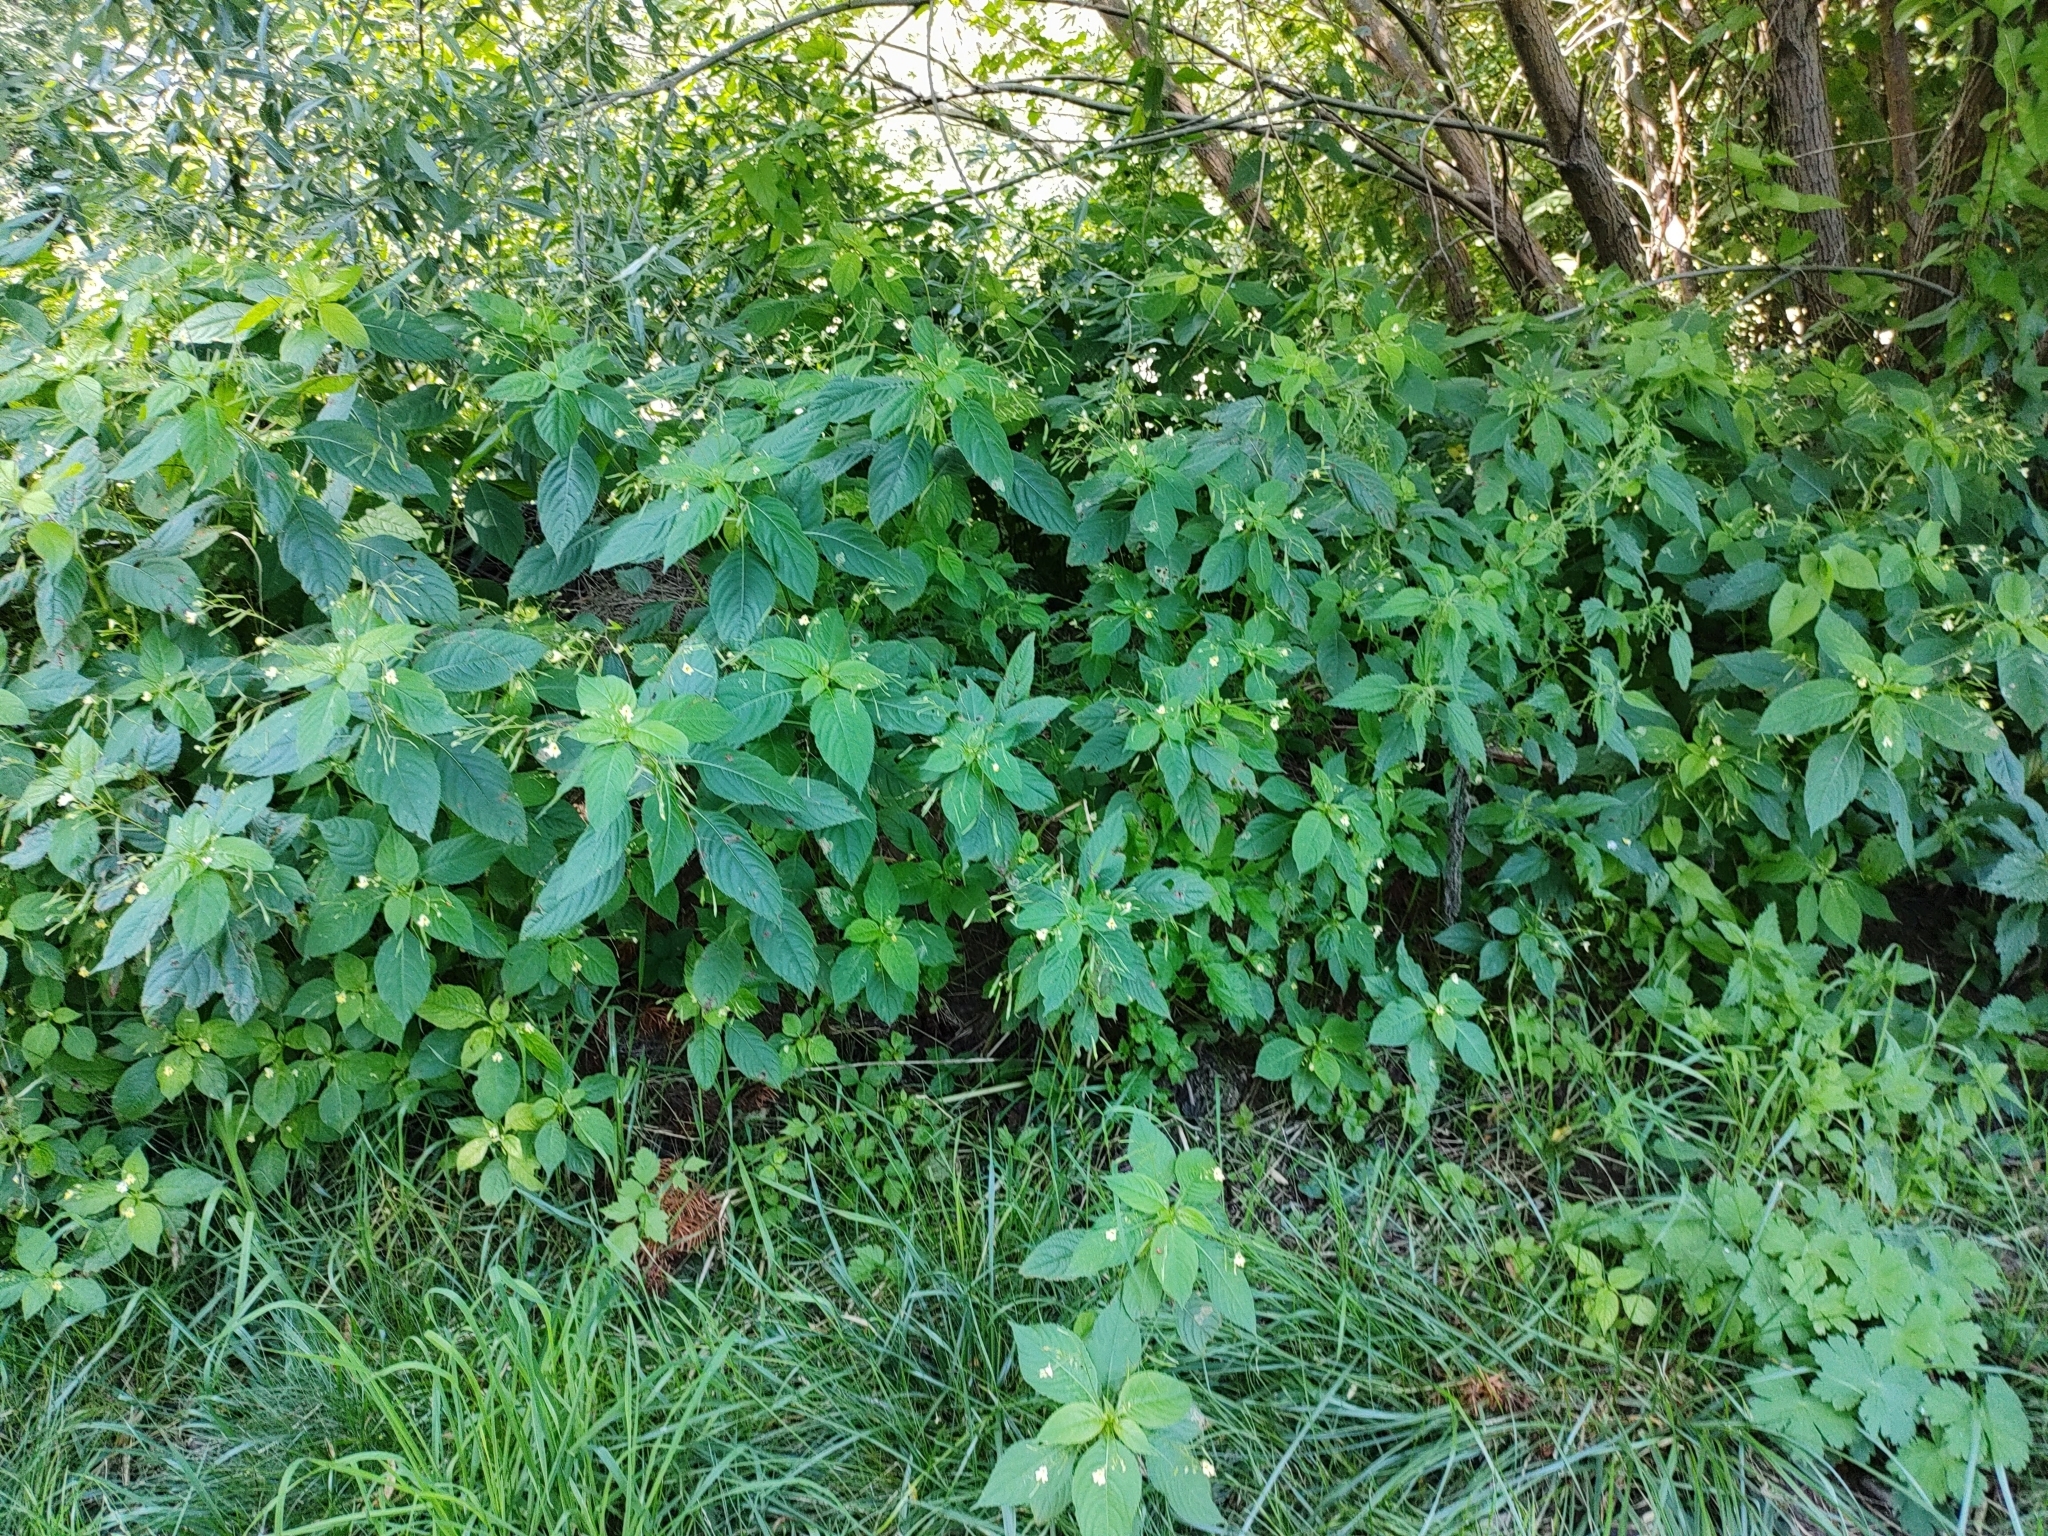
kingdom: Plantae
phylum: Tracheophyta
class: Magnoliopsida
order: Ericales
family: Balsaminaceae
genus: Impatiens
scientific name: Impatiens parviflora
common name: Small balsam
